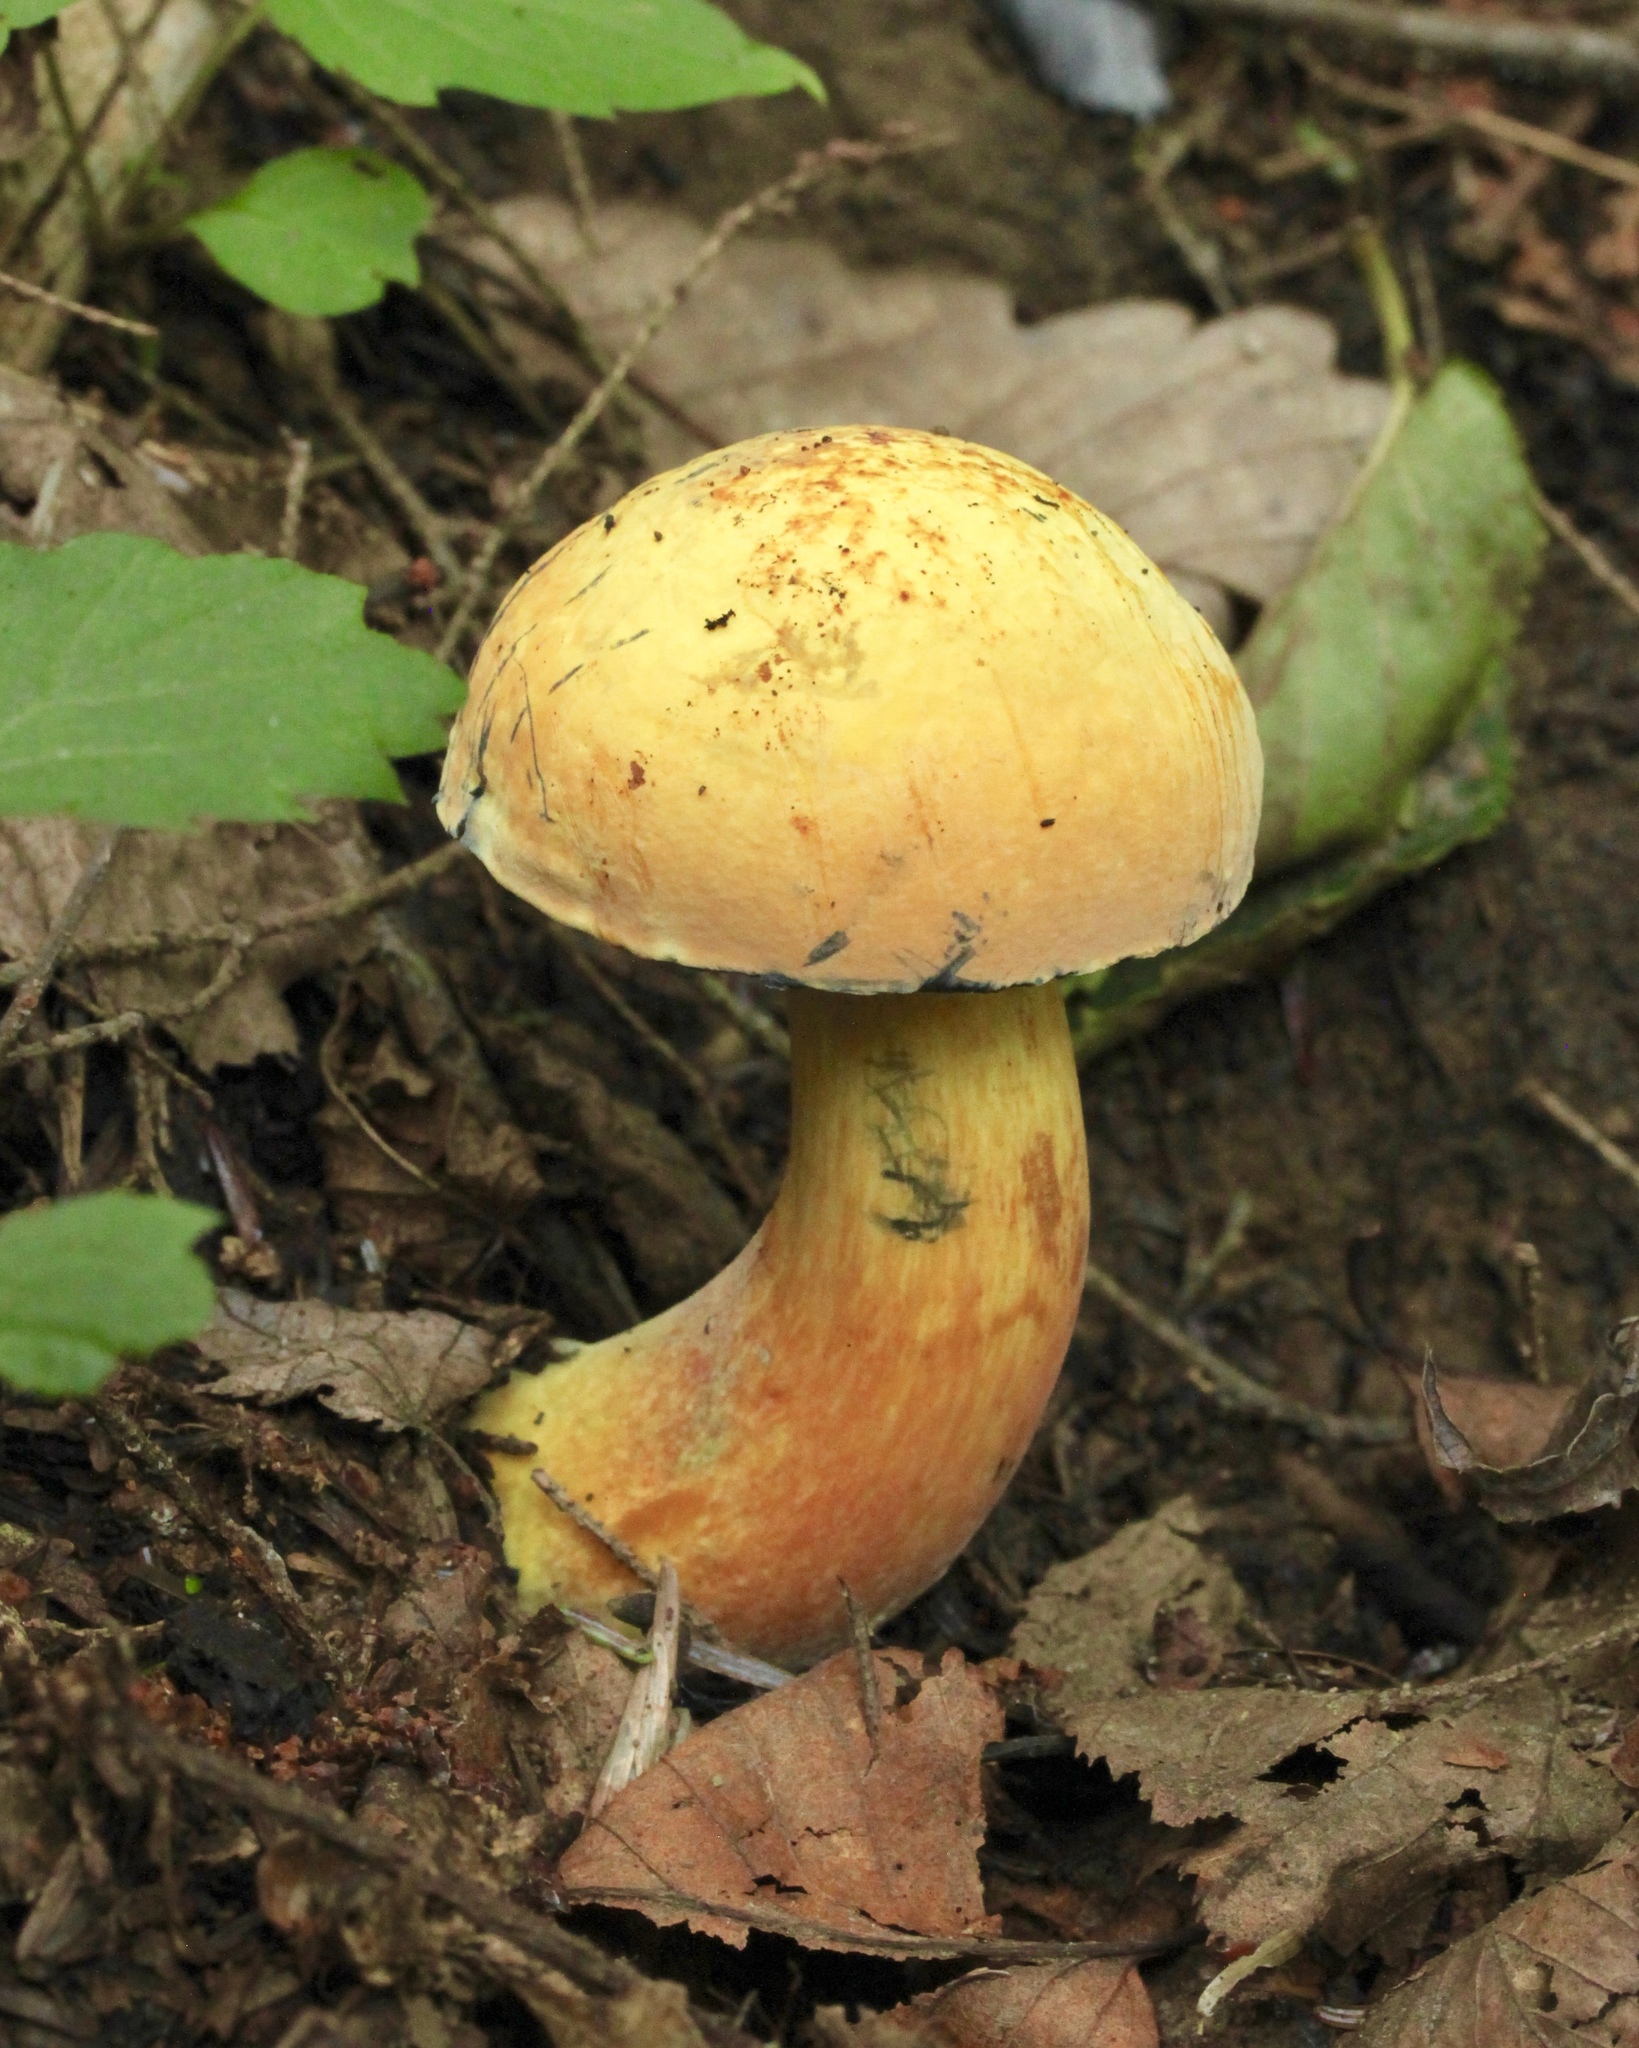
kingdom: Fungi
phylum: Basidiomycota
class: Agaricomycetes
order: Boletales
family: Boletaceae
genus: Boletus
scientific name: Boletus subvelutipes
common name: Red-mouth bolete
